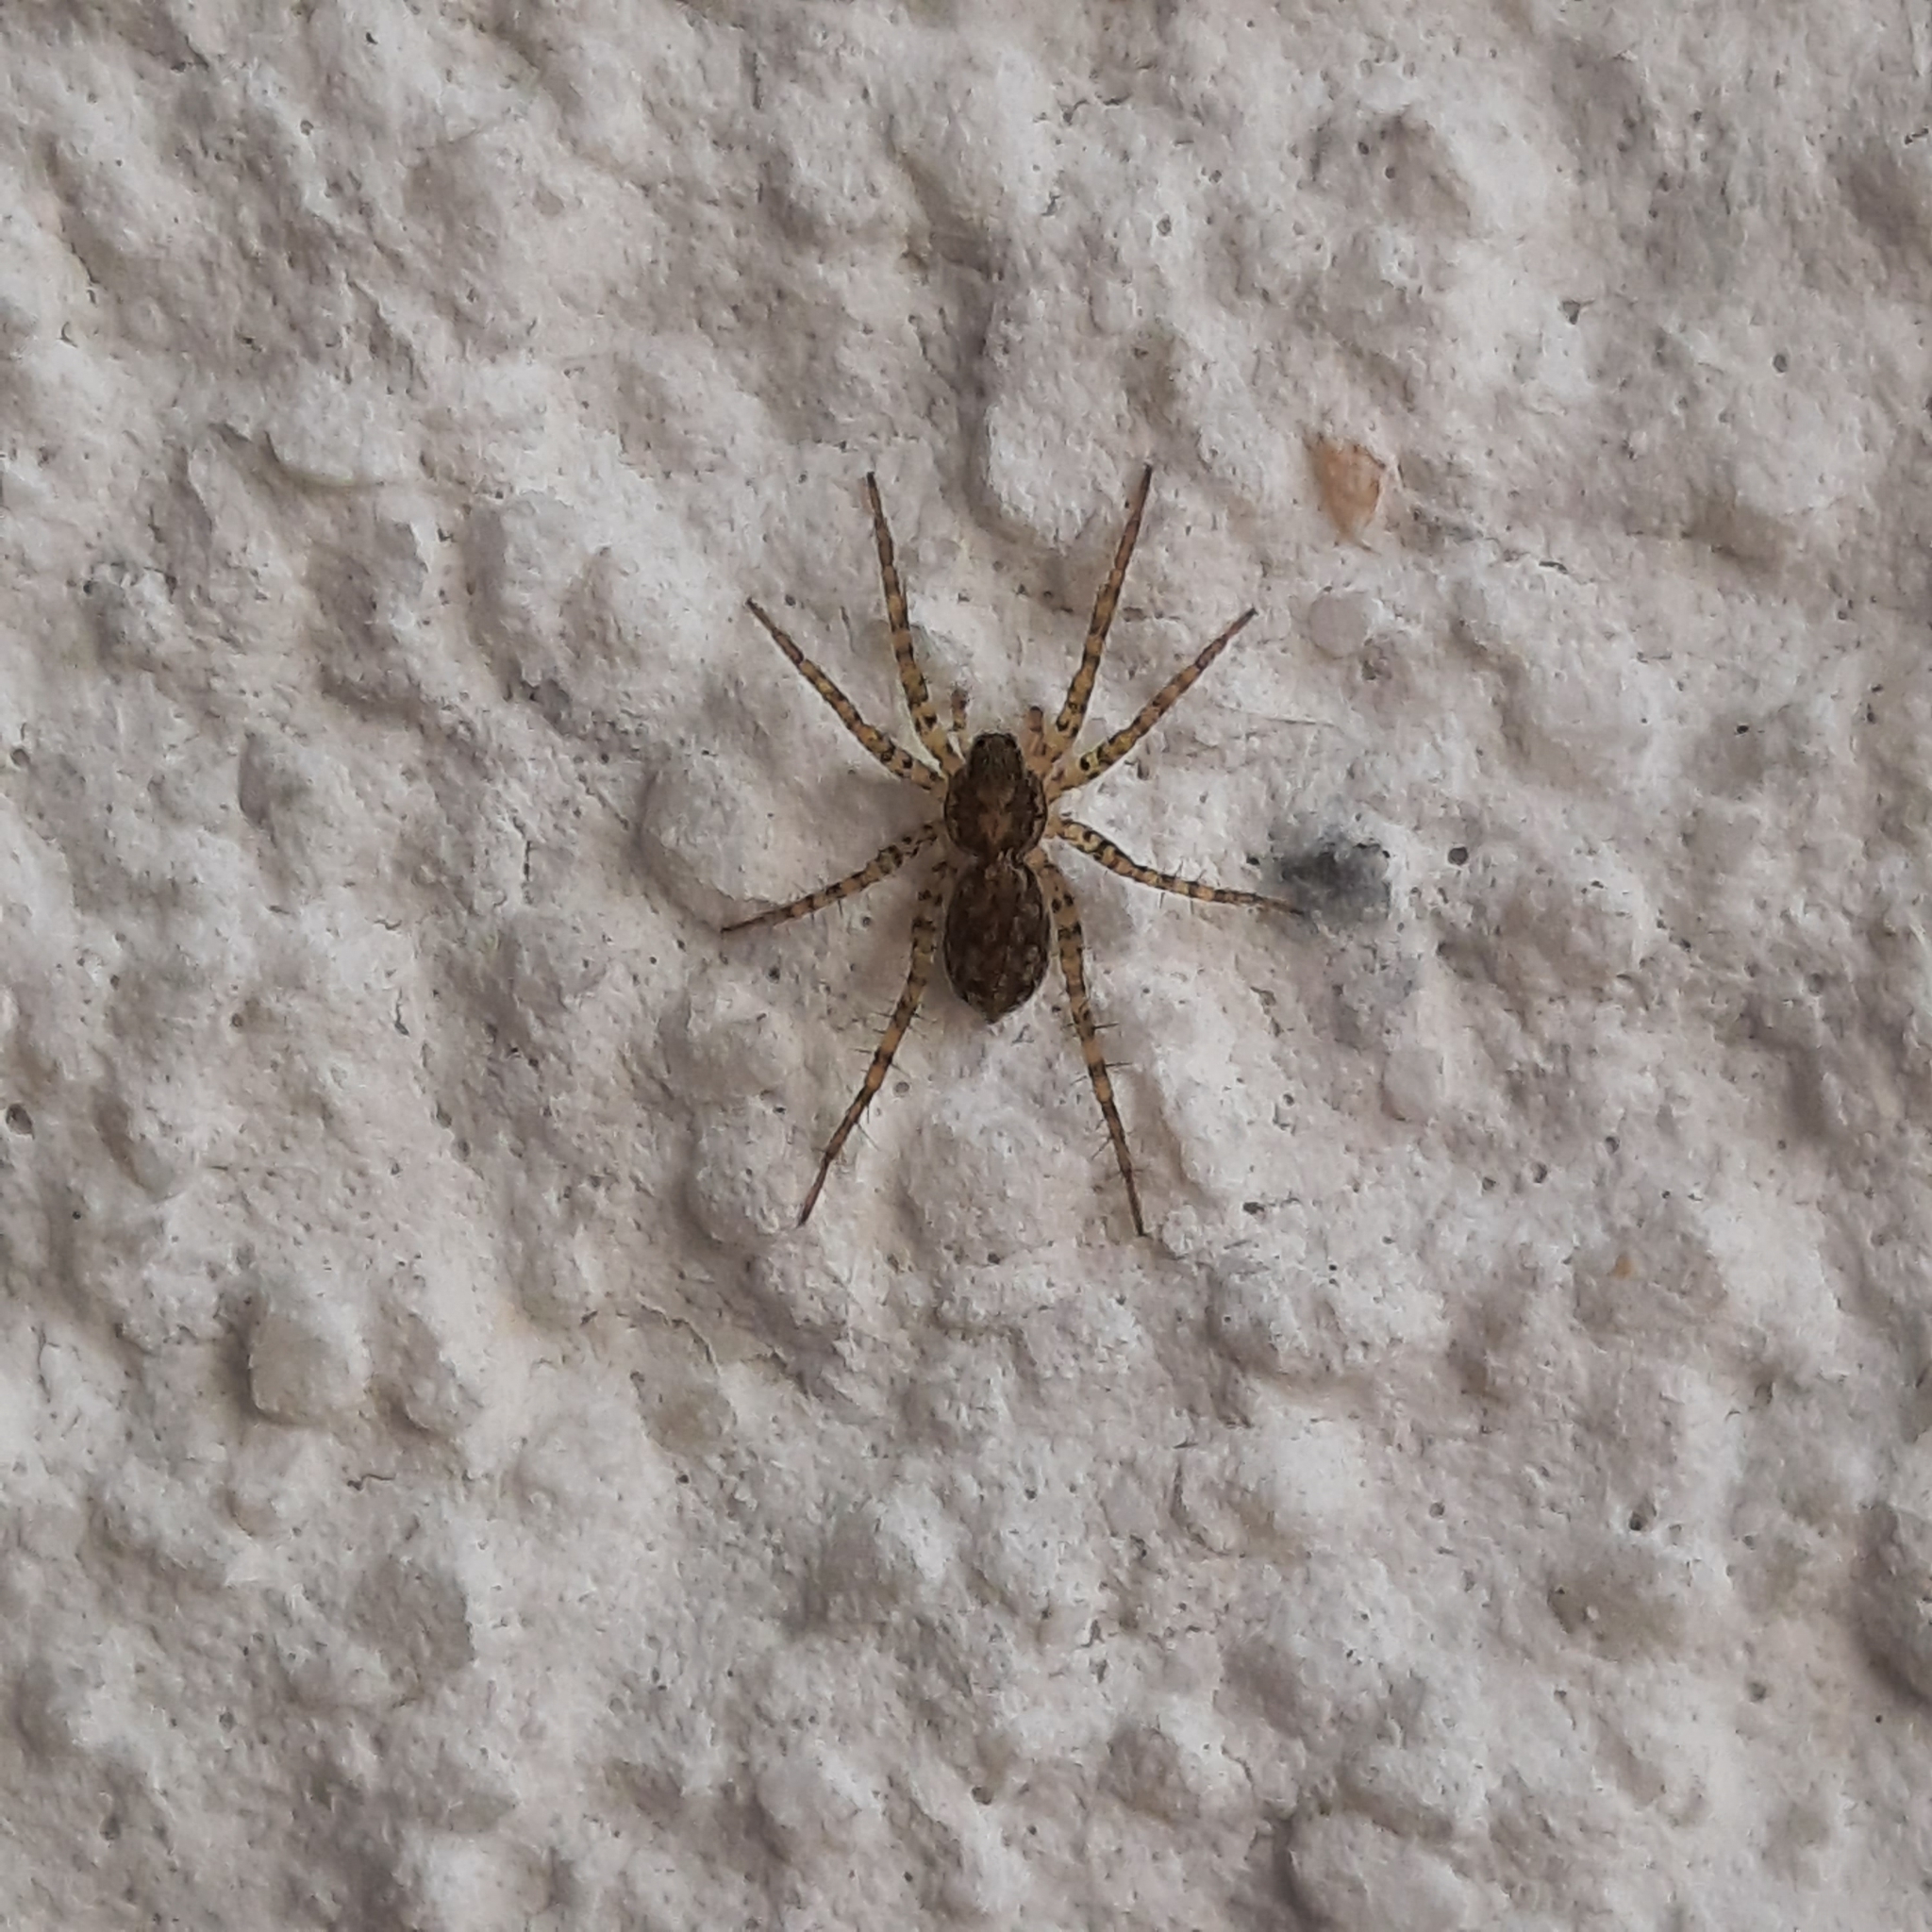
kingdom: Animalia
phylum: Arthropoda
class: Arachnida
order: Araneae
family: Lycosidae
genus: Pardosa
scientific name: Pardosa
